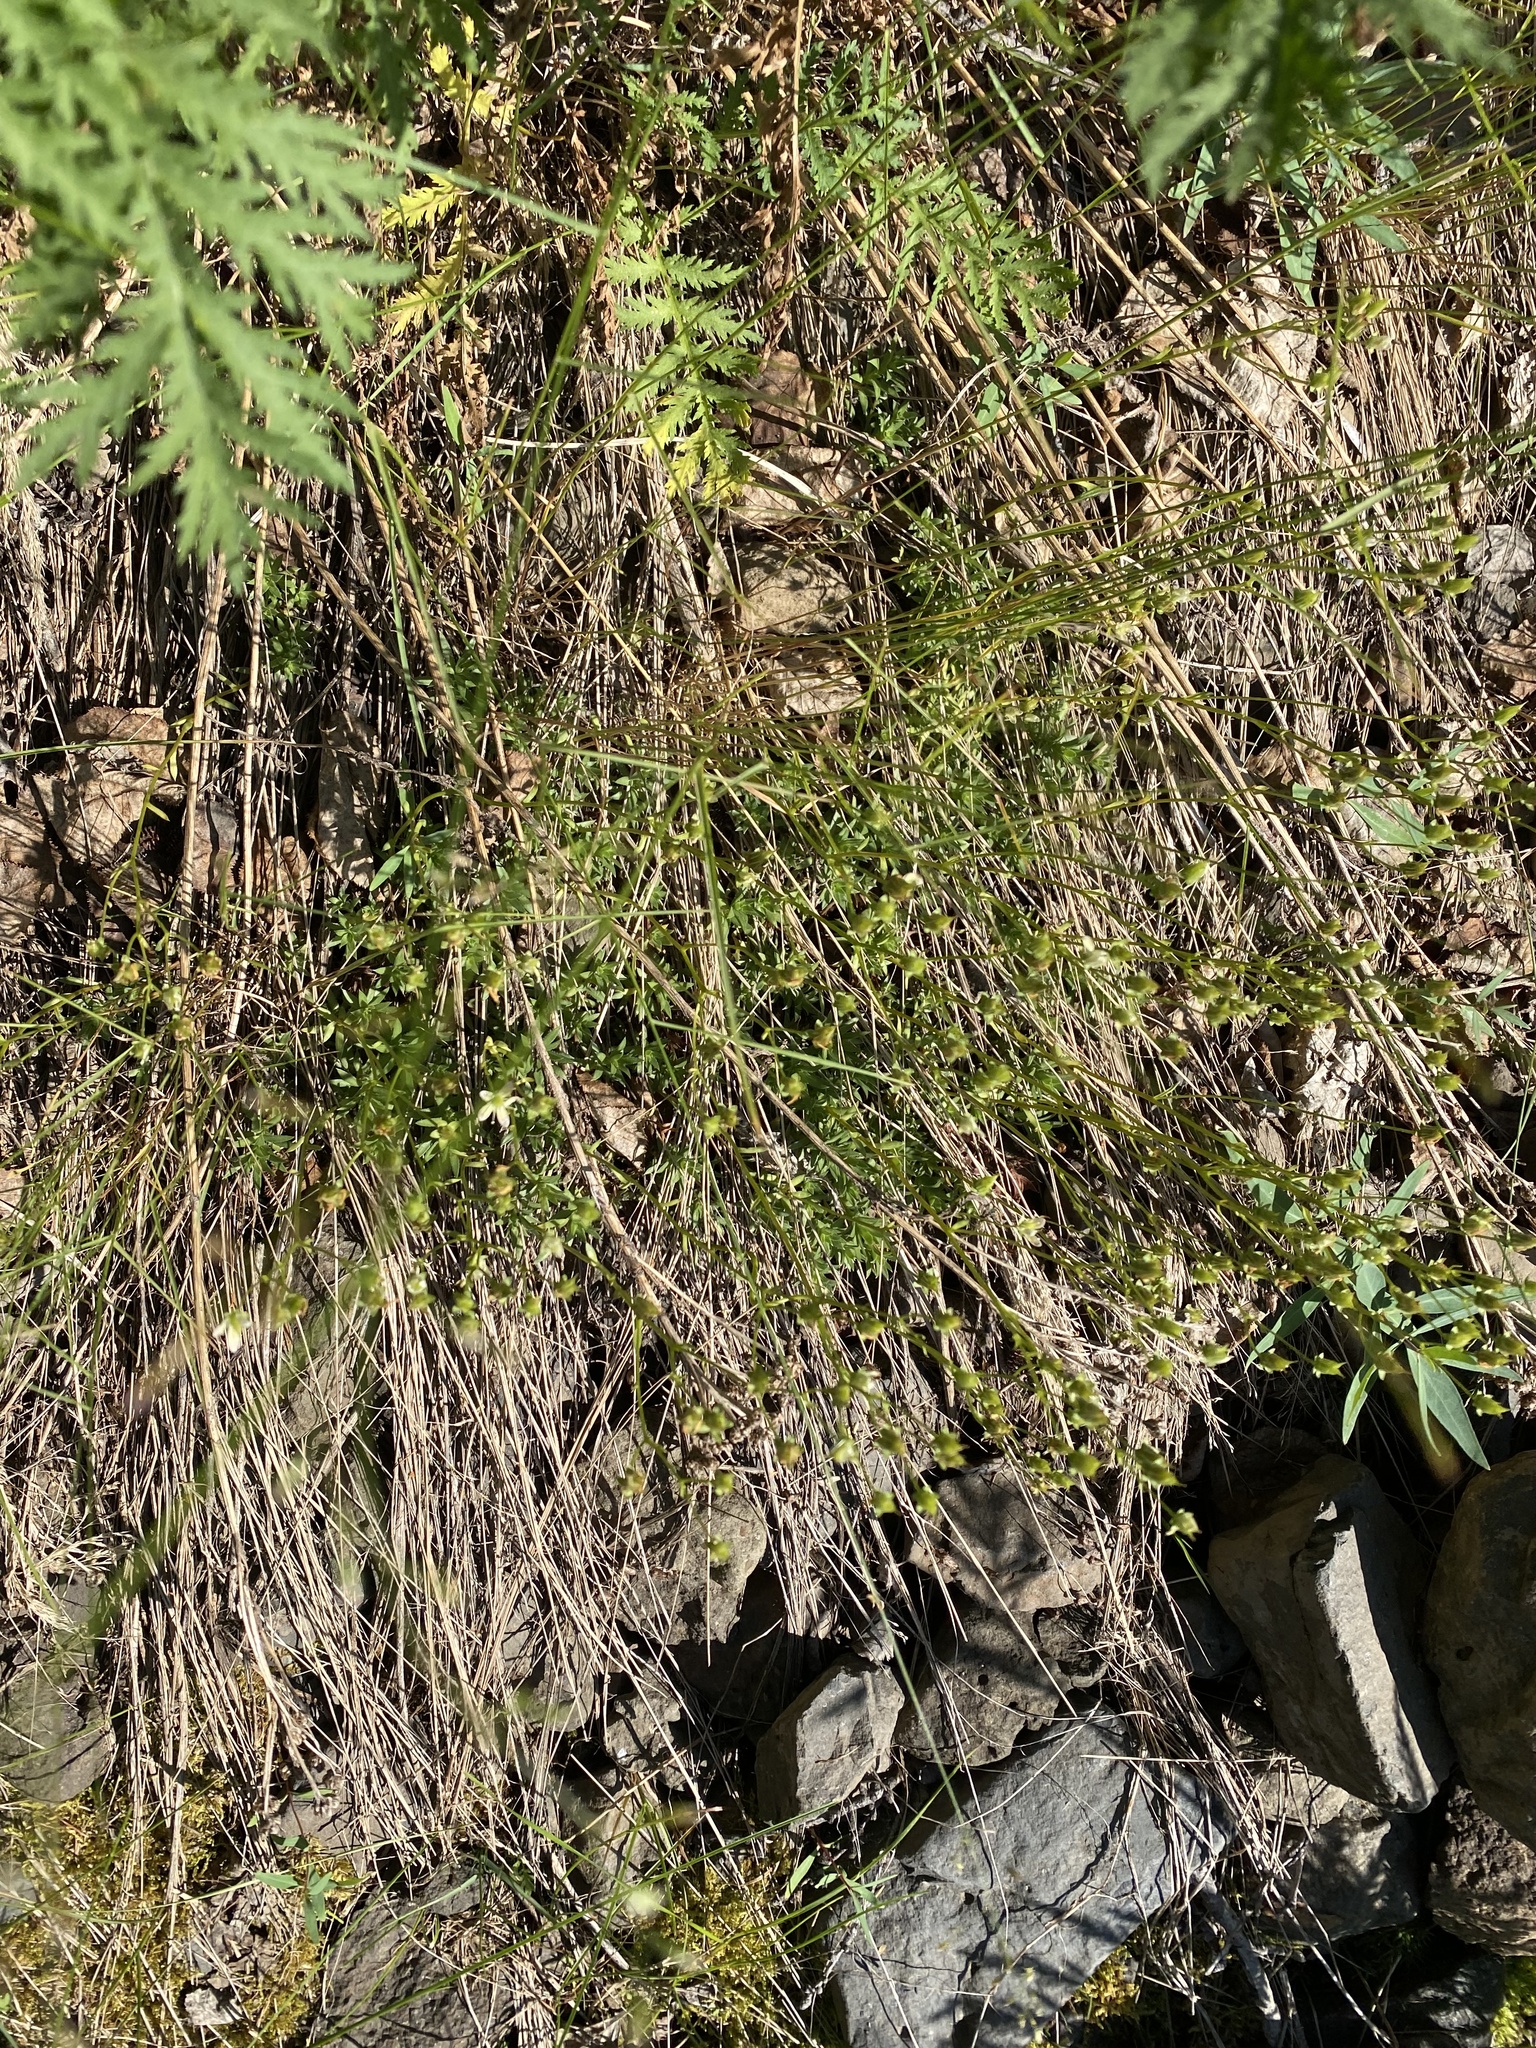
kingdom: Plantae
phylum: Tracheophyta
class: Magnoliopsida
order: Saxifragales
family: Saxifragaceae
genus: Saxifraga
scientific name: Saxifraga
